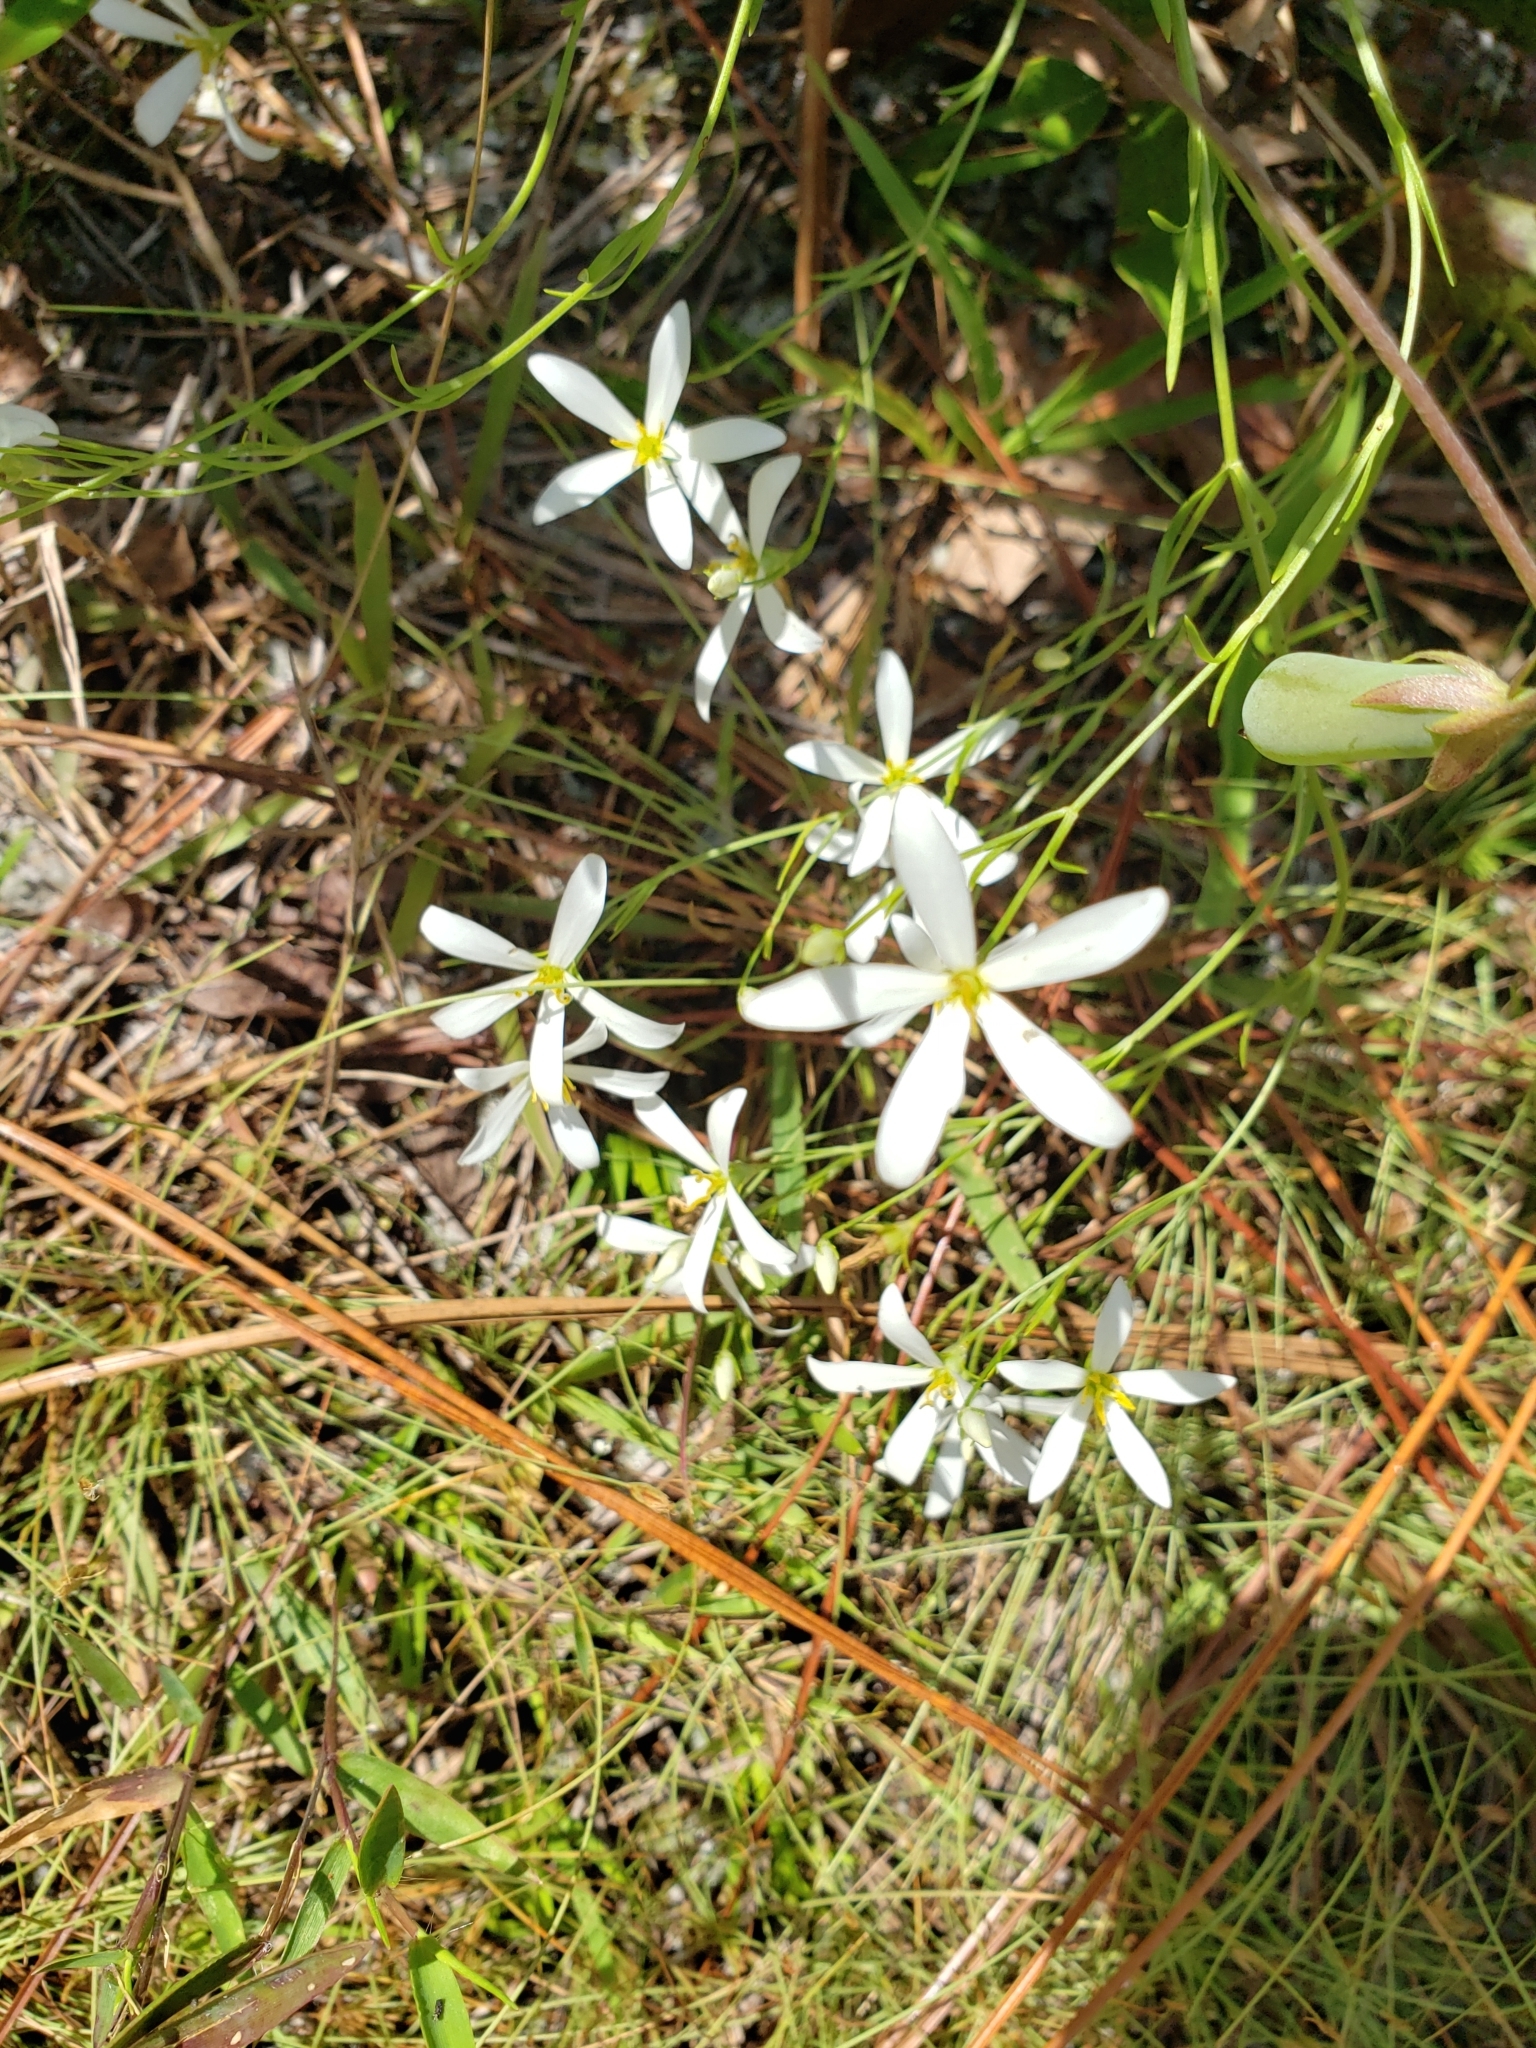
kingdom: Plantae
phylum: Tracheophyta
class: Magnoliopsida
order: Gentianales
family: Gentianaceae
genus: Sabatia
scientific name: Sabatia brevifolia
